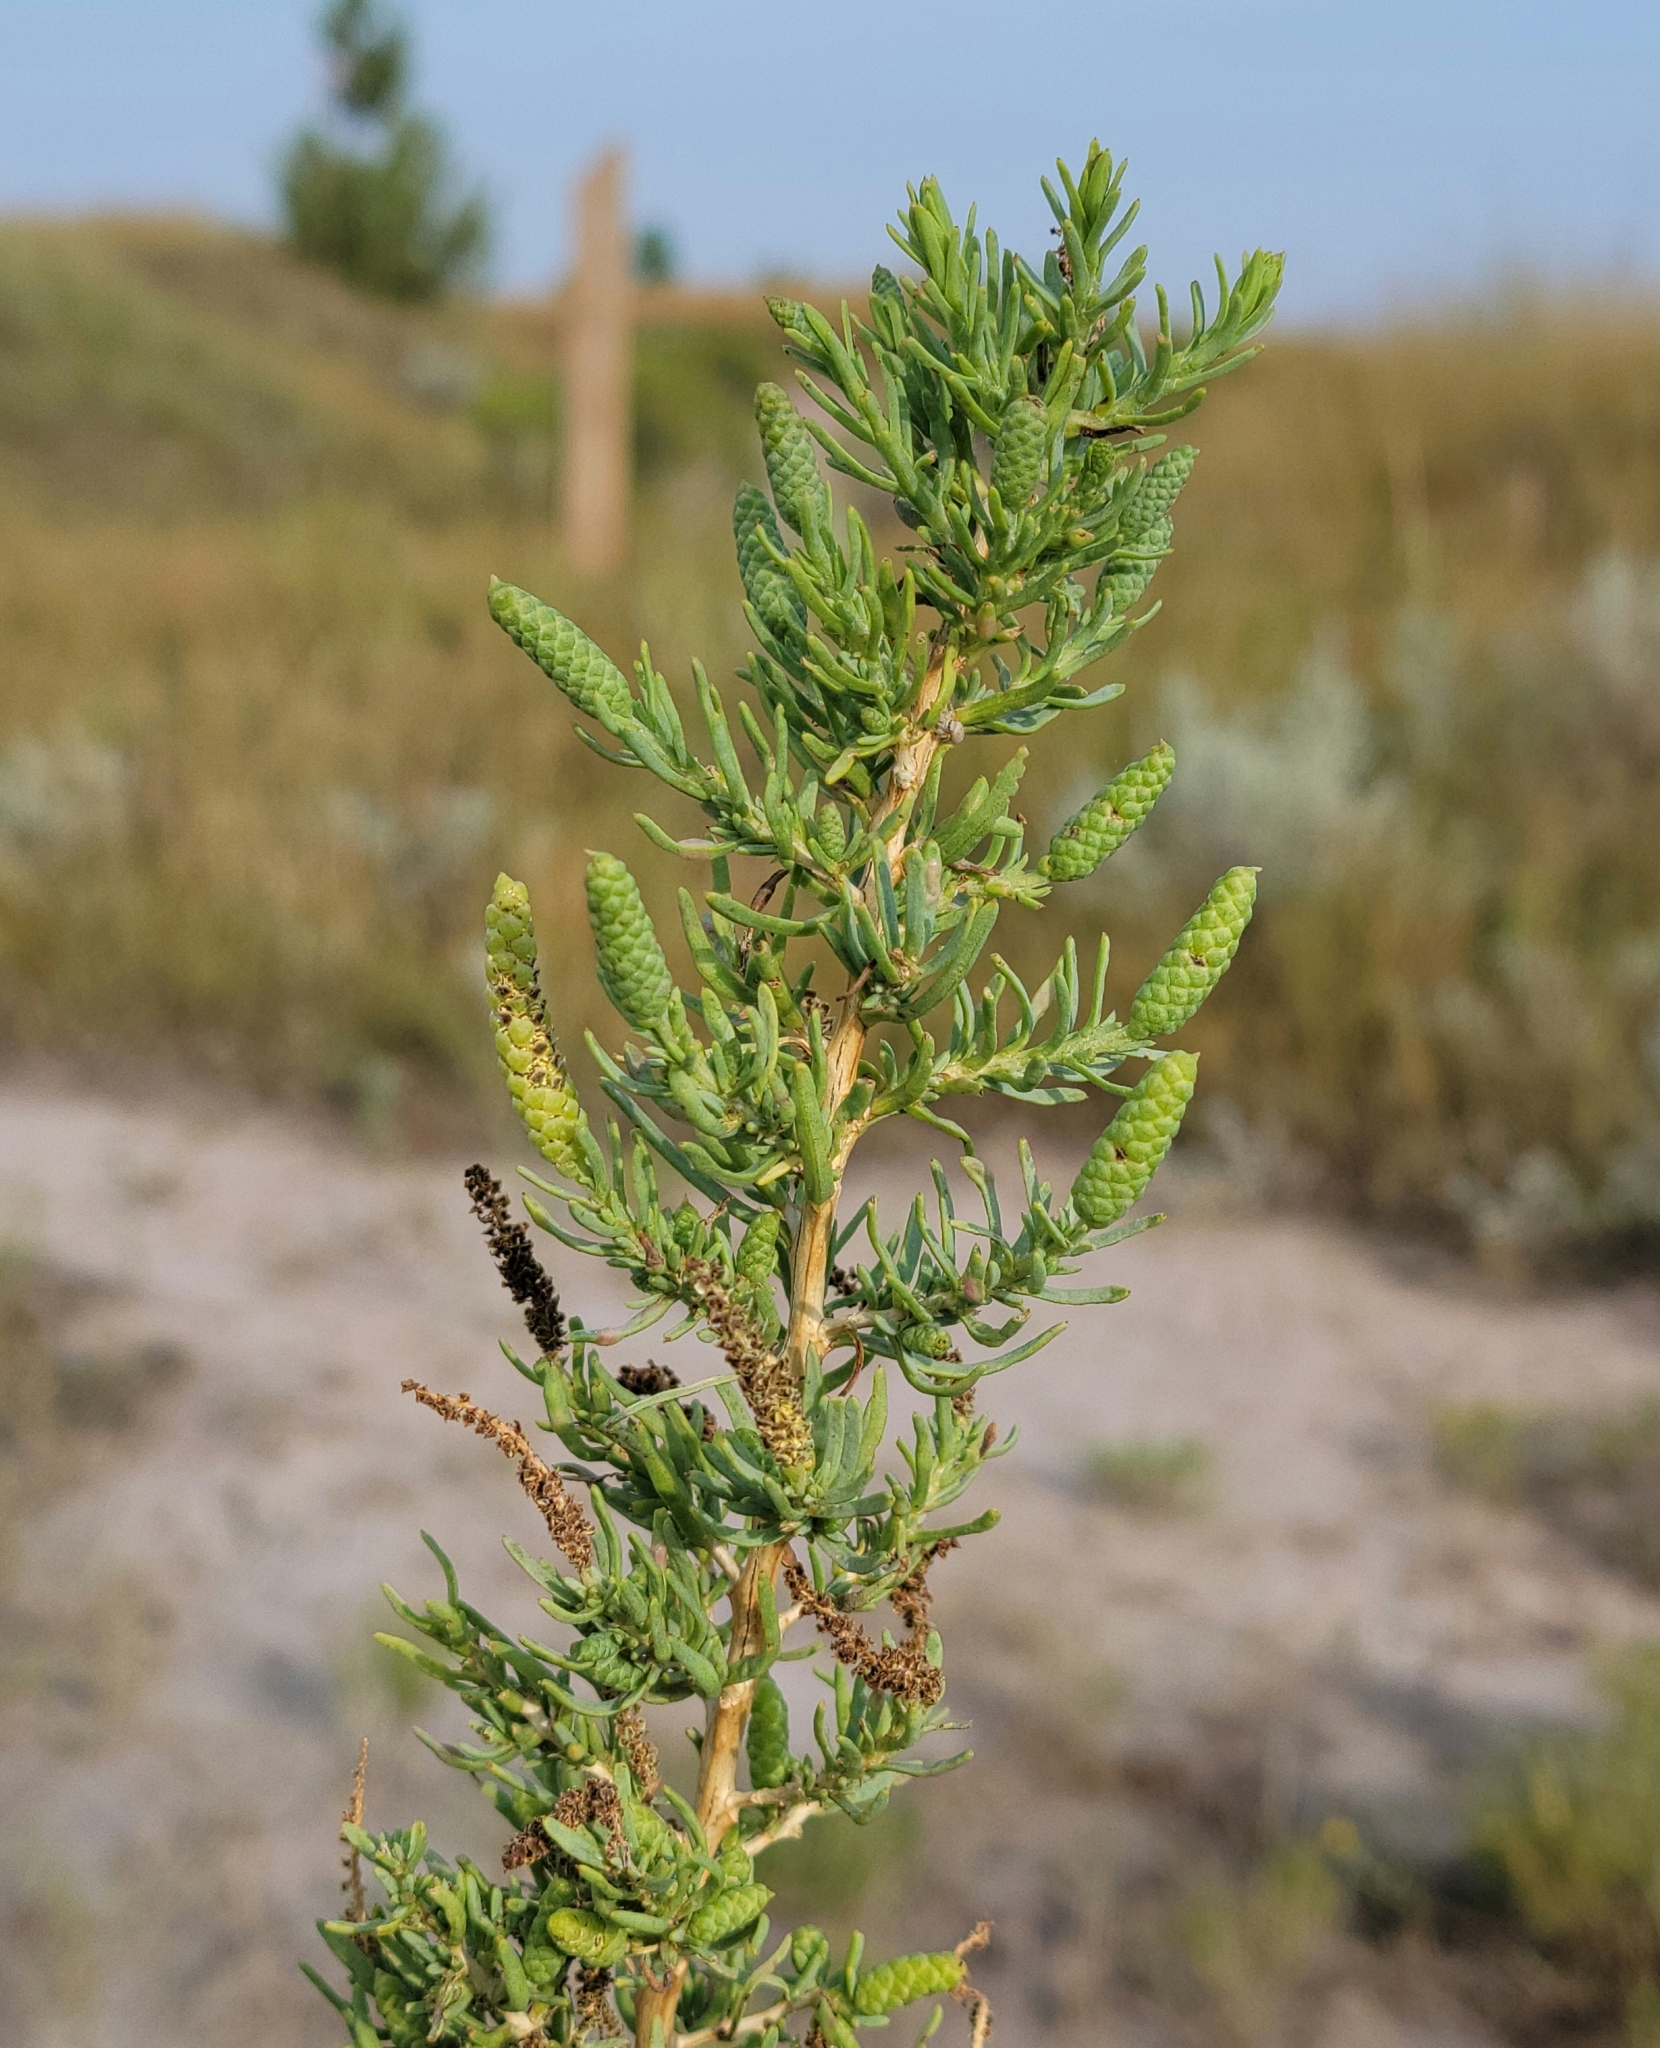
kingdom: Plantae
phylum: Tracheophyta
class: Magnoliopsida
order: Caryophyllales
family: Sarcobataceae
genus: Sarcobatus
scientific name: Sarcobatus vermiculatus
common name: Greasewood
